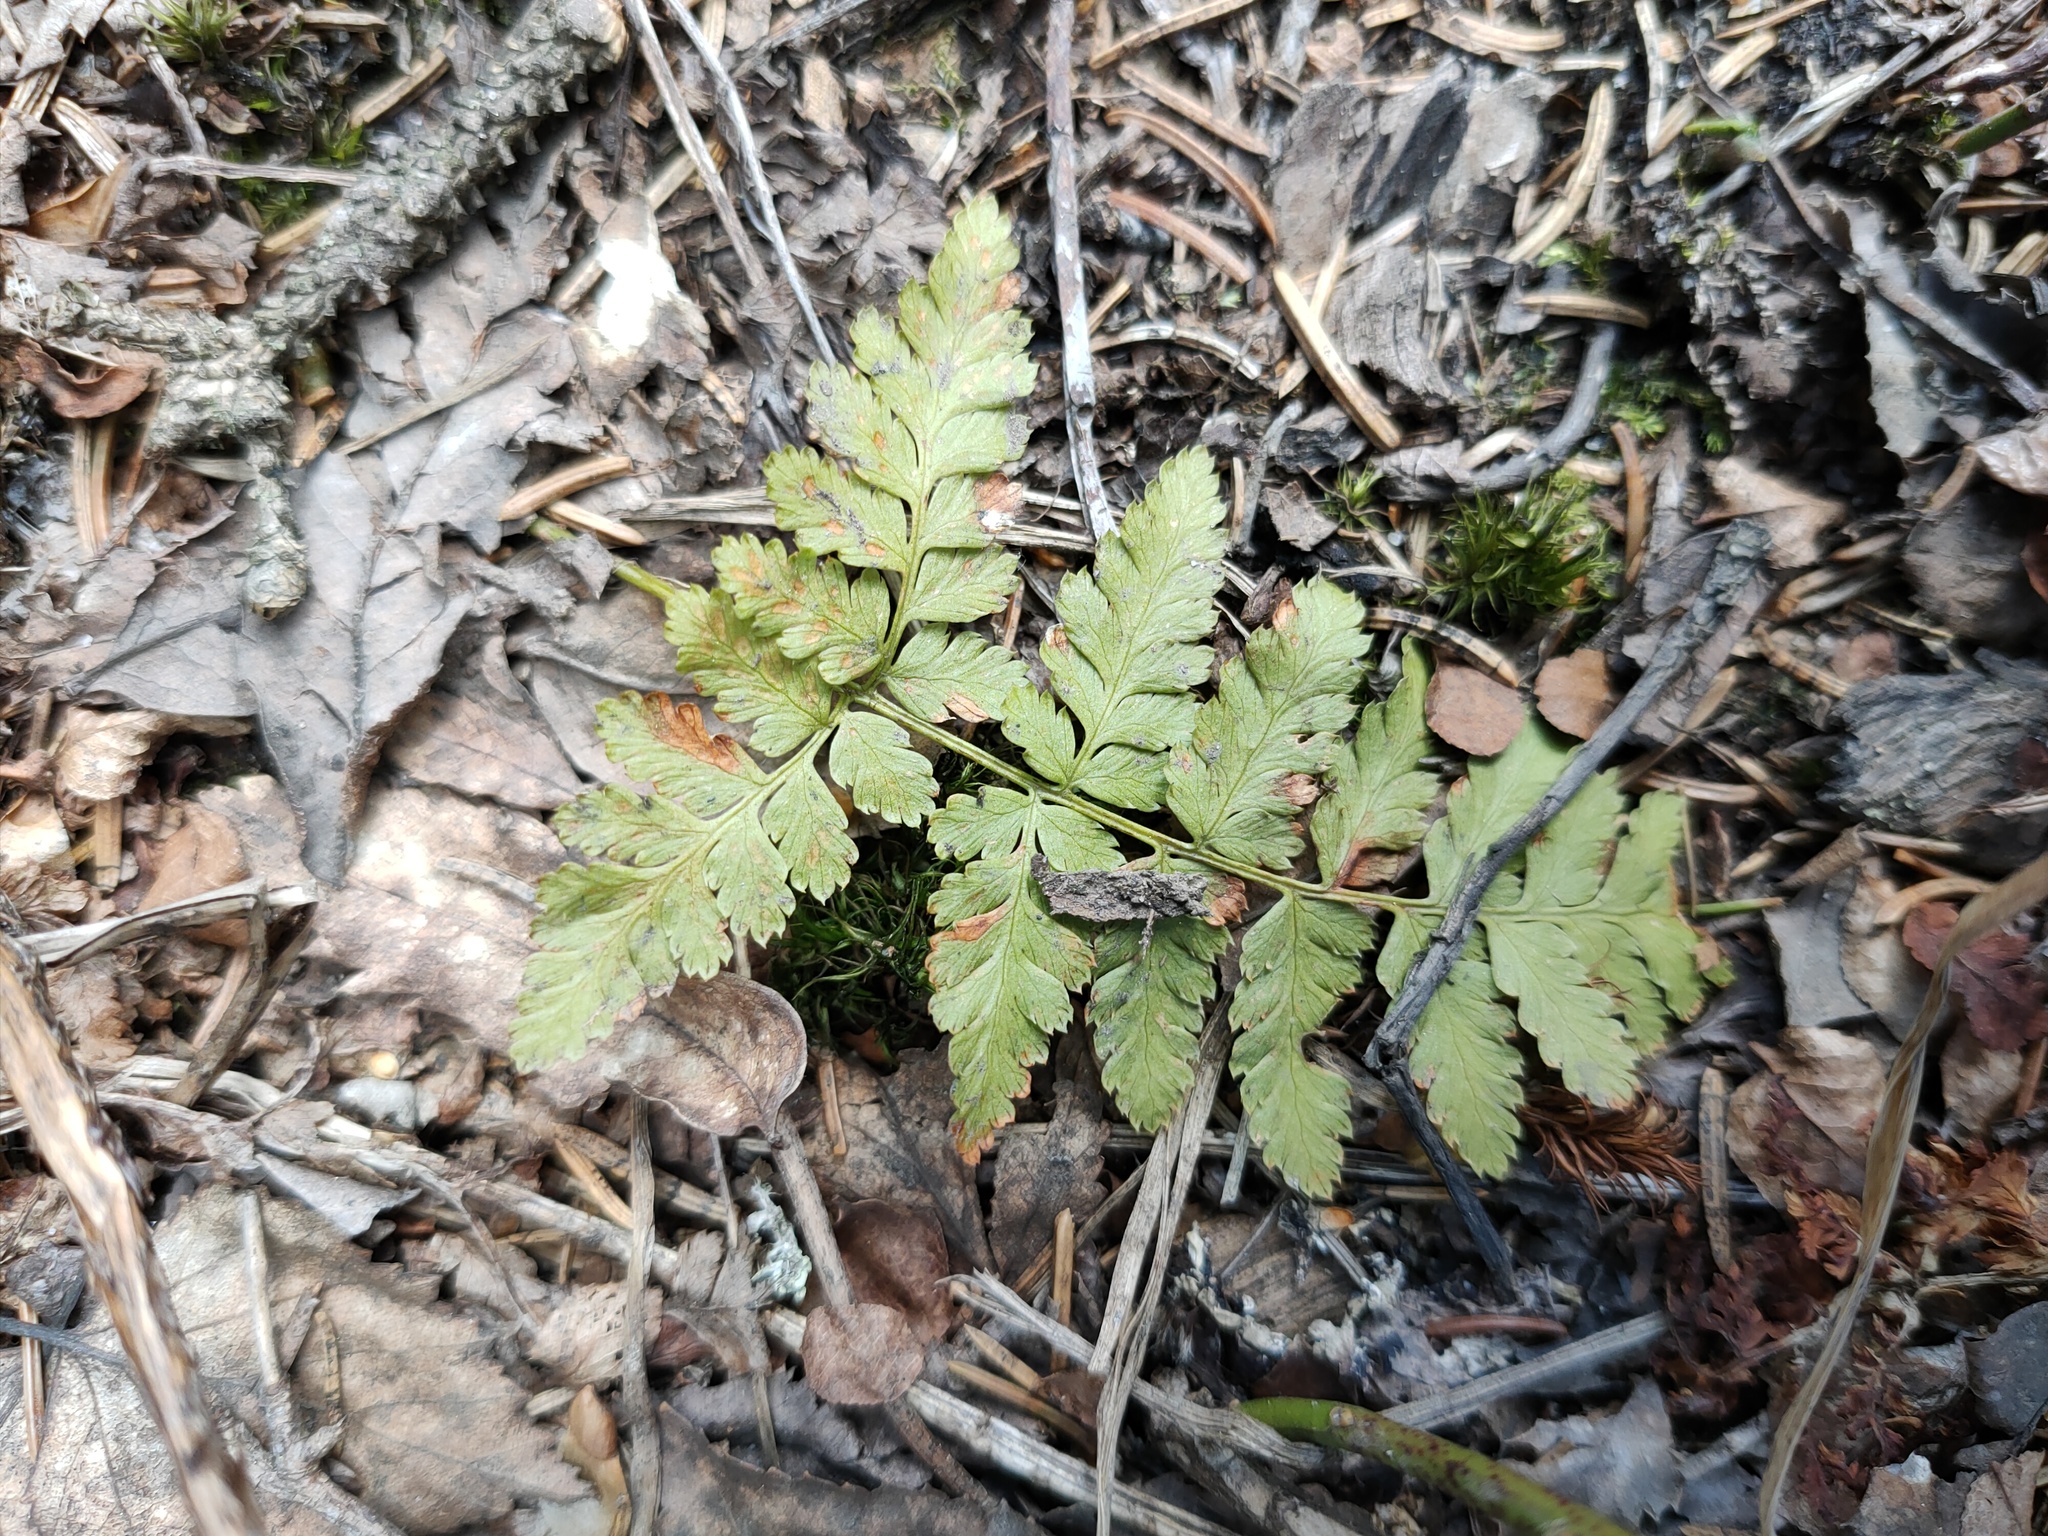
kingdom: Plantae
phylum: Tracheophyta
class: Polypodiopsida
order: Polypodiales
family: Dryopteridaceae
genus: Dryopteris
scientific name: Dryopteris carthusiana
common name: Narrow buckler-fern
